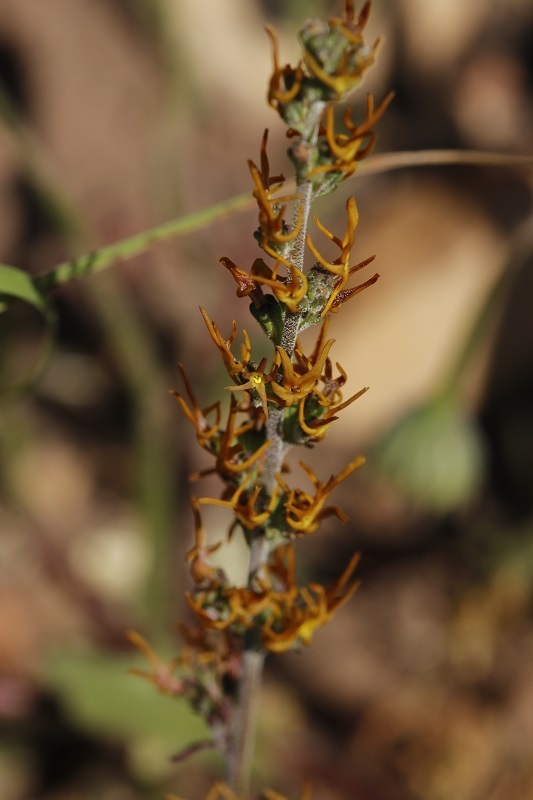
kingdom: Plantae
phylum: Tracheophyta
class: Magnoliopsida
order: Lamiales
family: Scrophulariaceae
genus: Manulea
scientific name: Manulea cheiranthus
